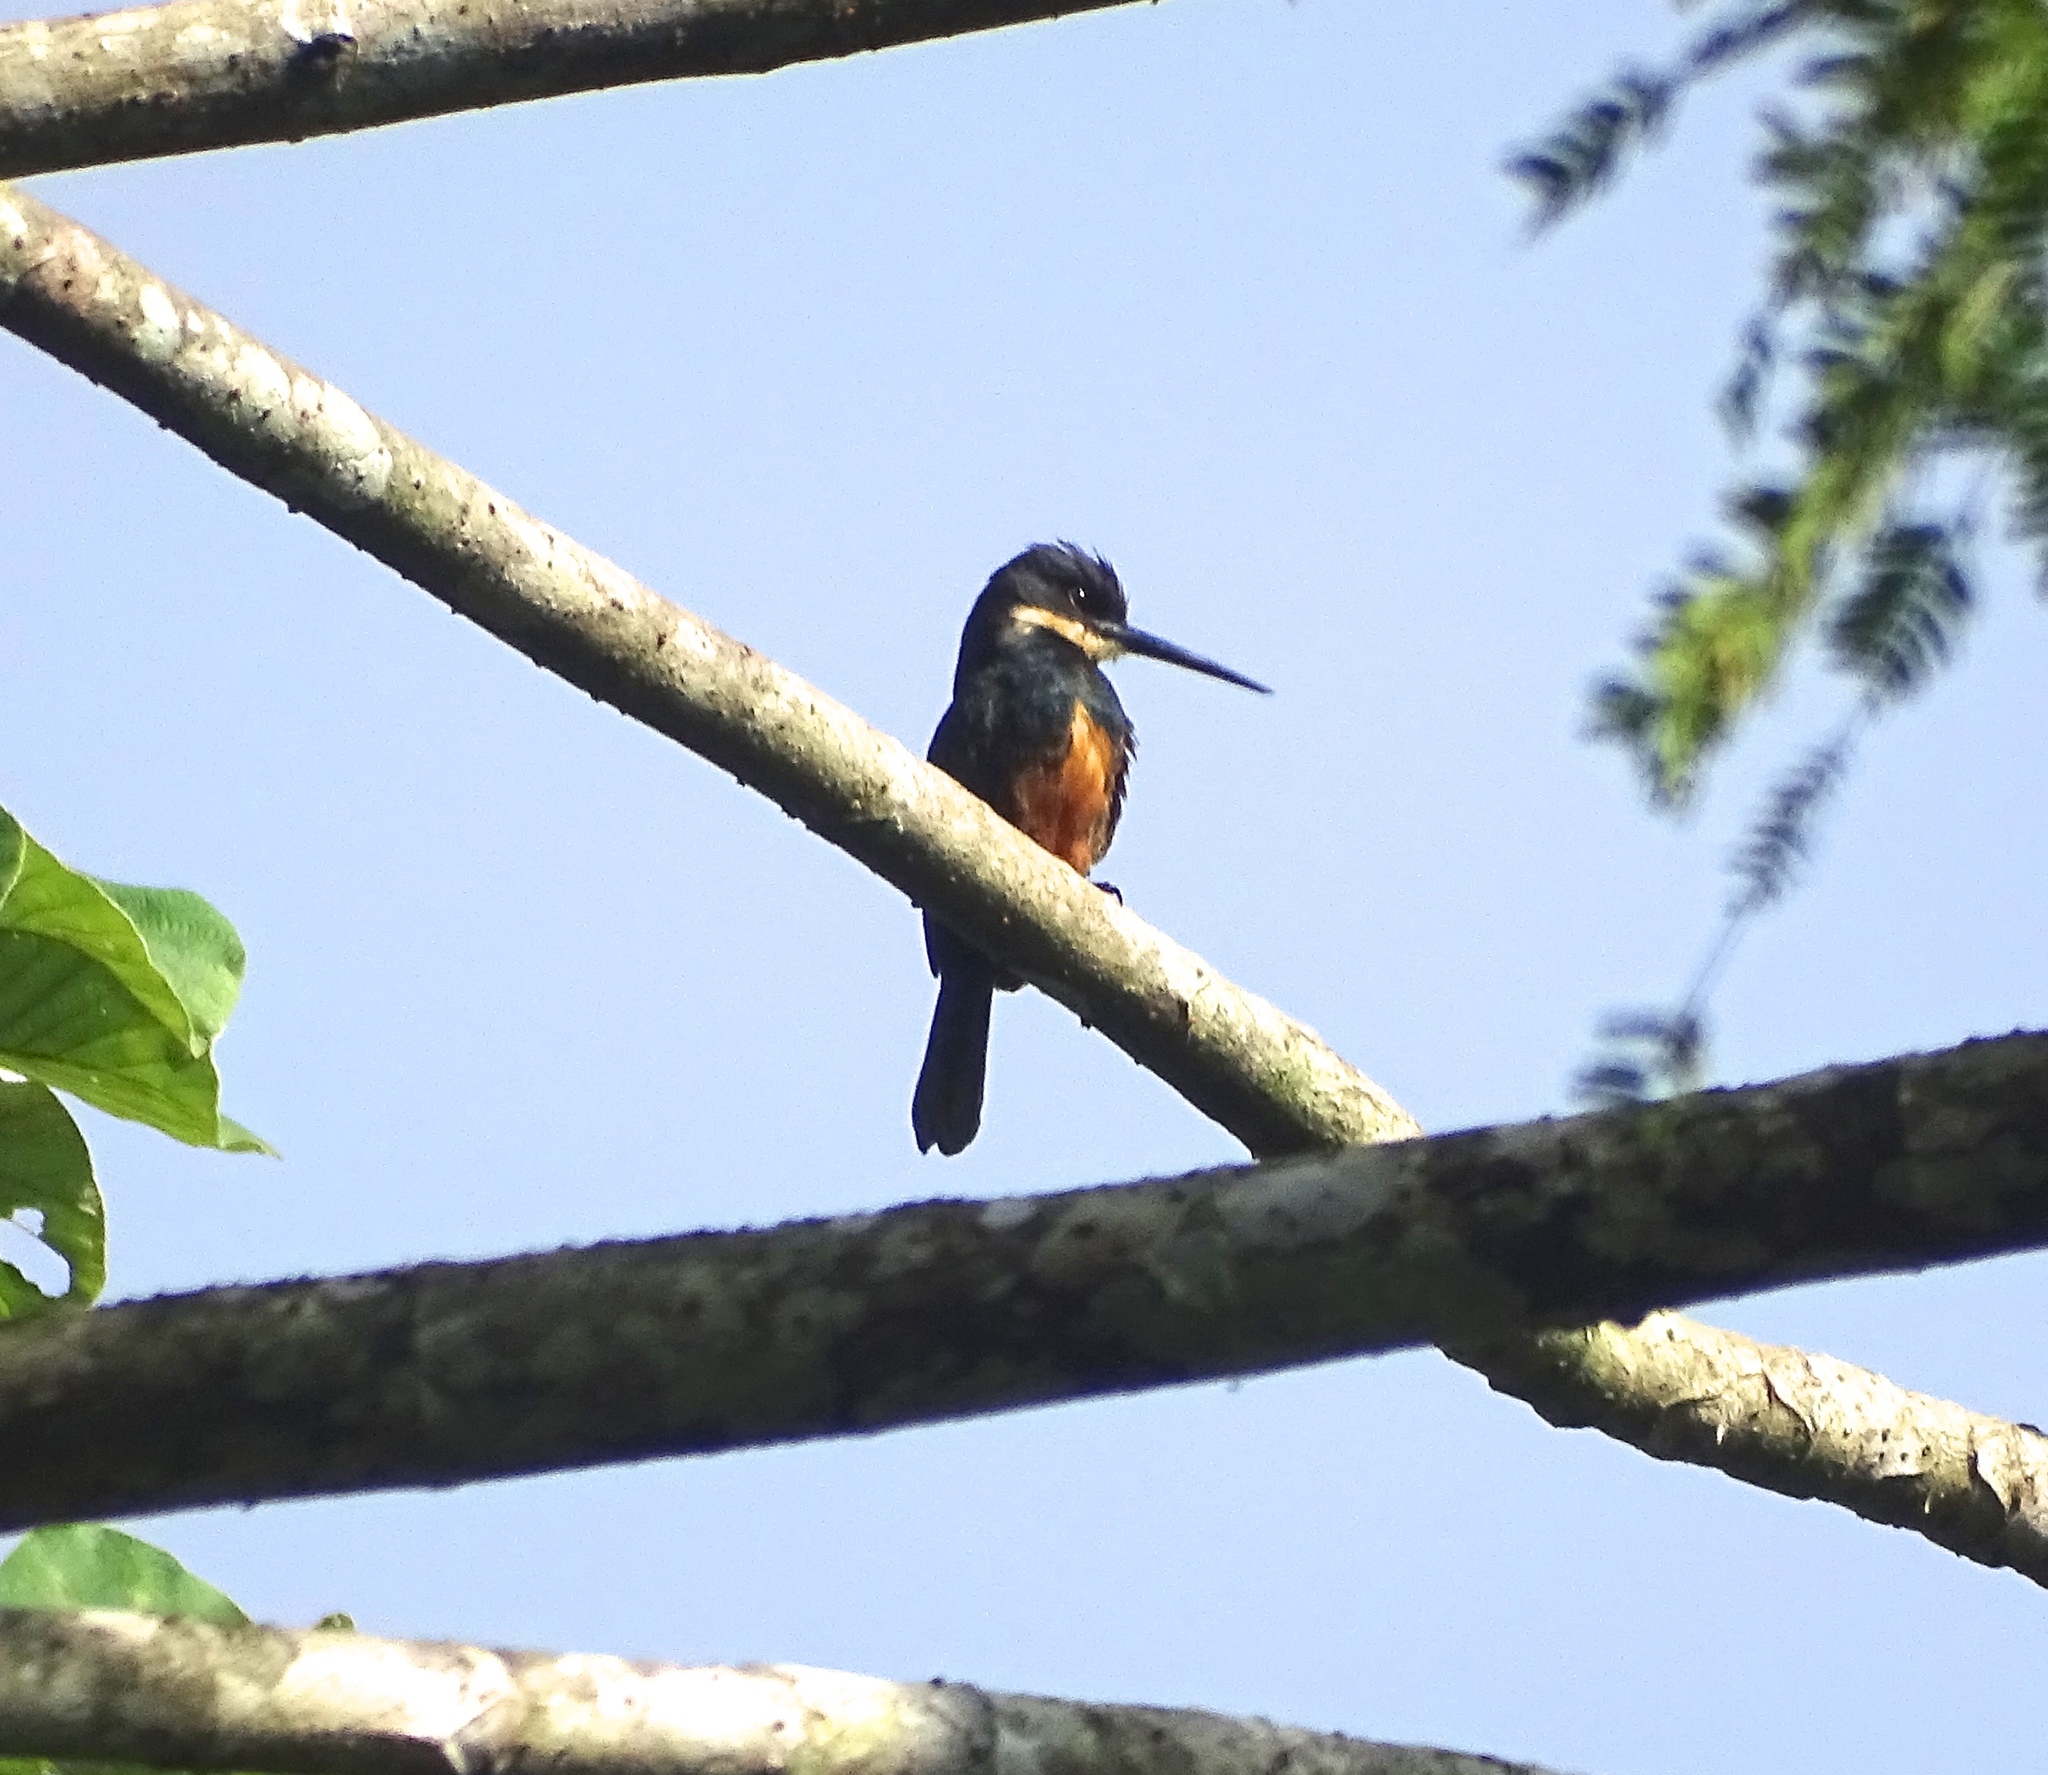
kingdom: Animalia
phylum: Chordata
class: Aves
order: Piciformes
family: Galbulidae
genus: Brachygalba
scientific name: Brachygalba salmoni
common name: Dusky-backed jacamar
